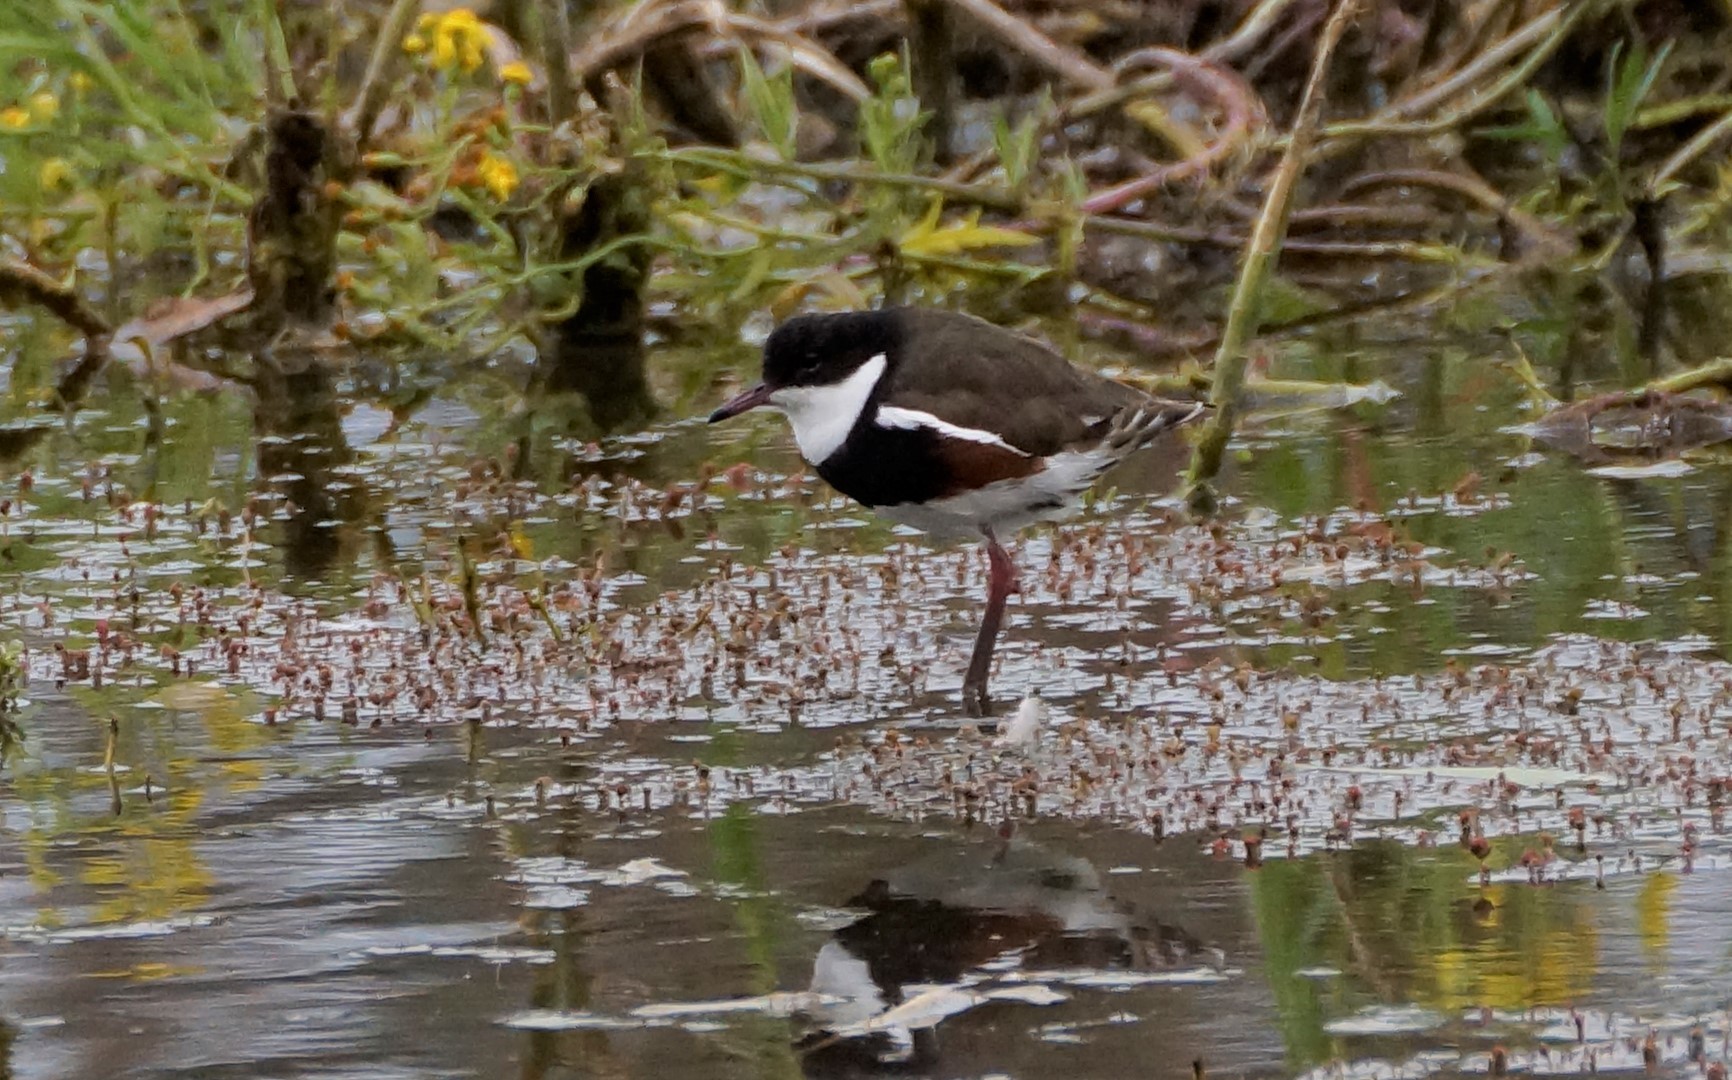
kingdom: Animalia
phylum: Chordata
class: Aves
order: Charadriiformes
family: Charadriidae
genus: Erythrogonys
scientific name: Erythrogonys cinctus
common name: Red-kneed dotterel
